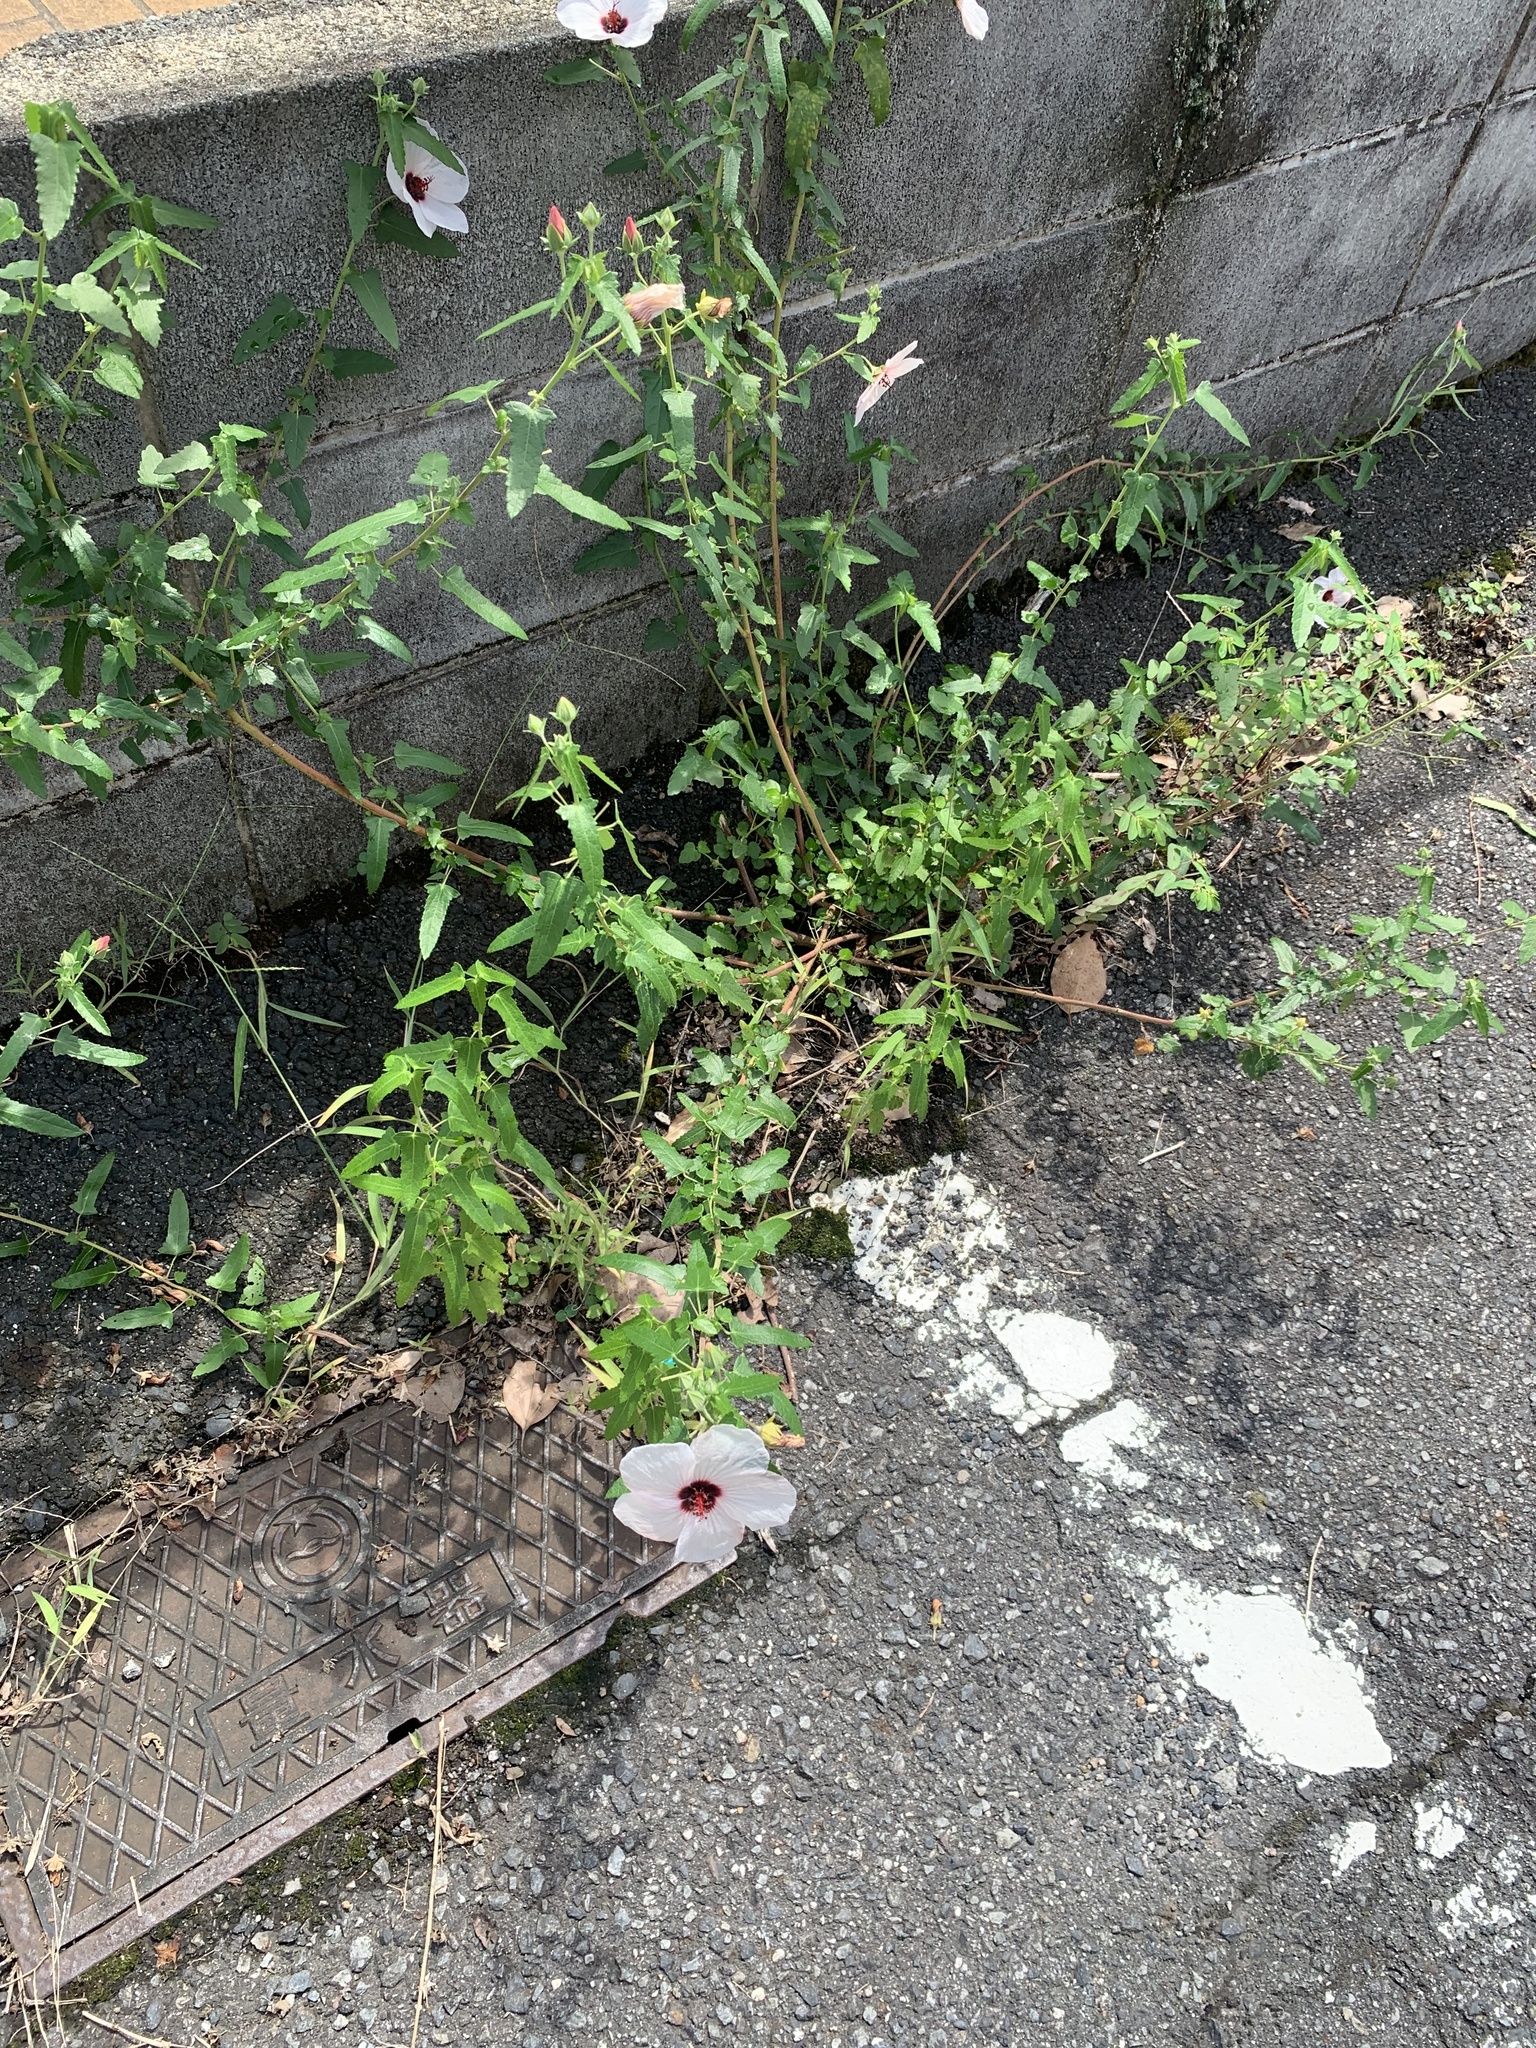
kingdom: Plantae
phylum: Tracheophyta
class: Magnoliopsida
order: Malvales
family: Malvaceae
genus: Pavonia
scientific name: Pavonia hastata
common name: Spearleaf swampmallow
